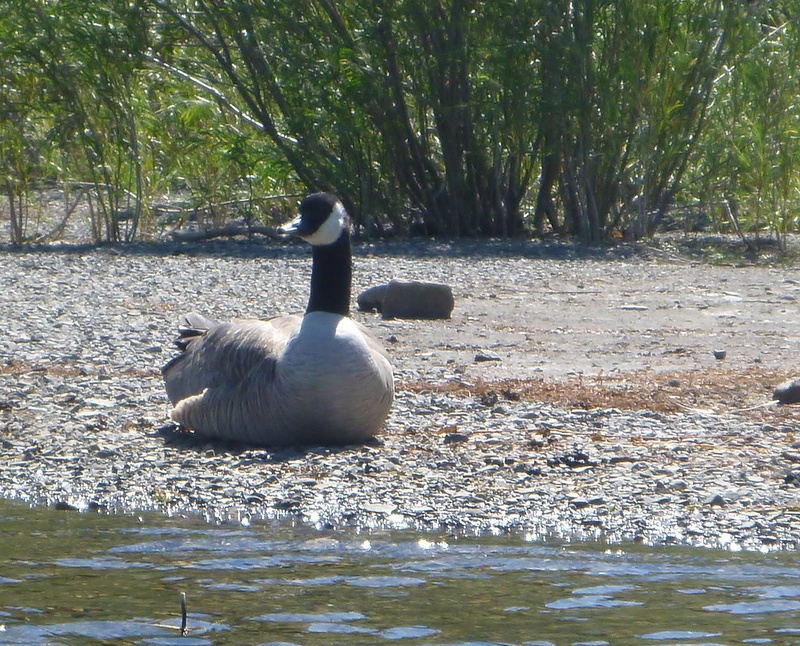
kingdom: Animalia
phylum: Chordata
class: Aves
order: Anseriformes
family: Anatidae
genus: Branta
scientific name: Branta canadensis
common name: Canada goose
